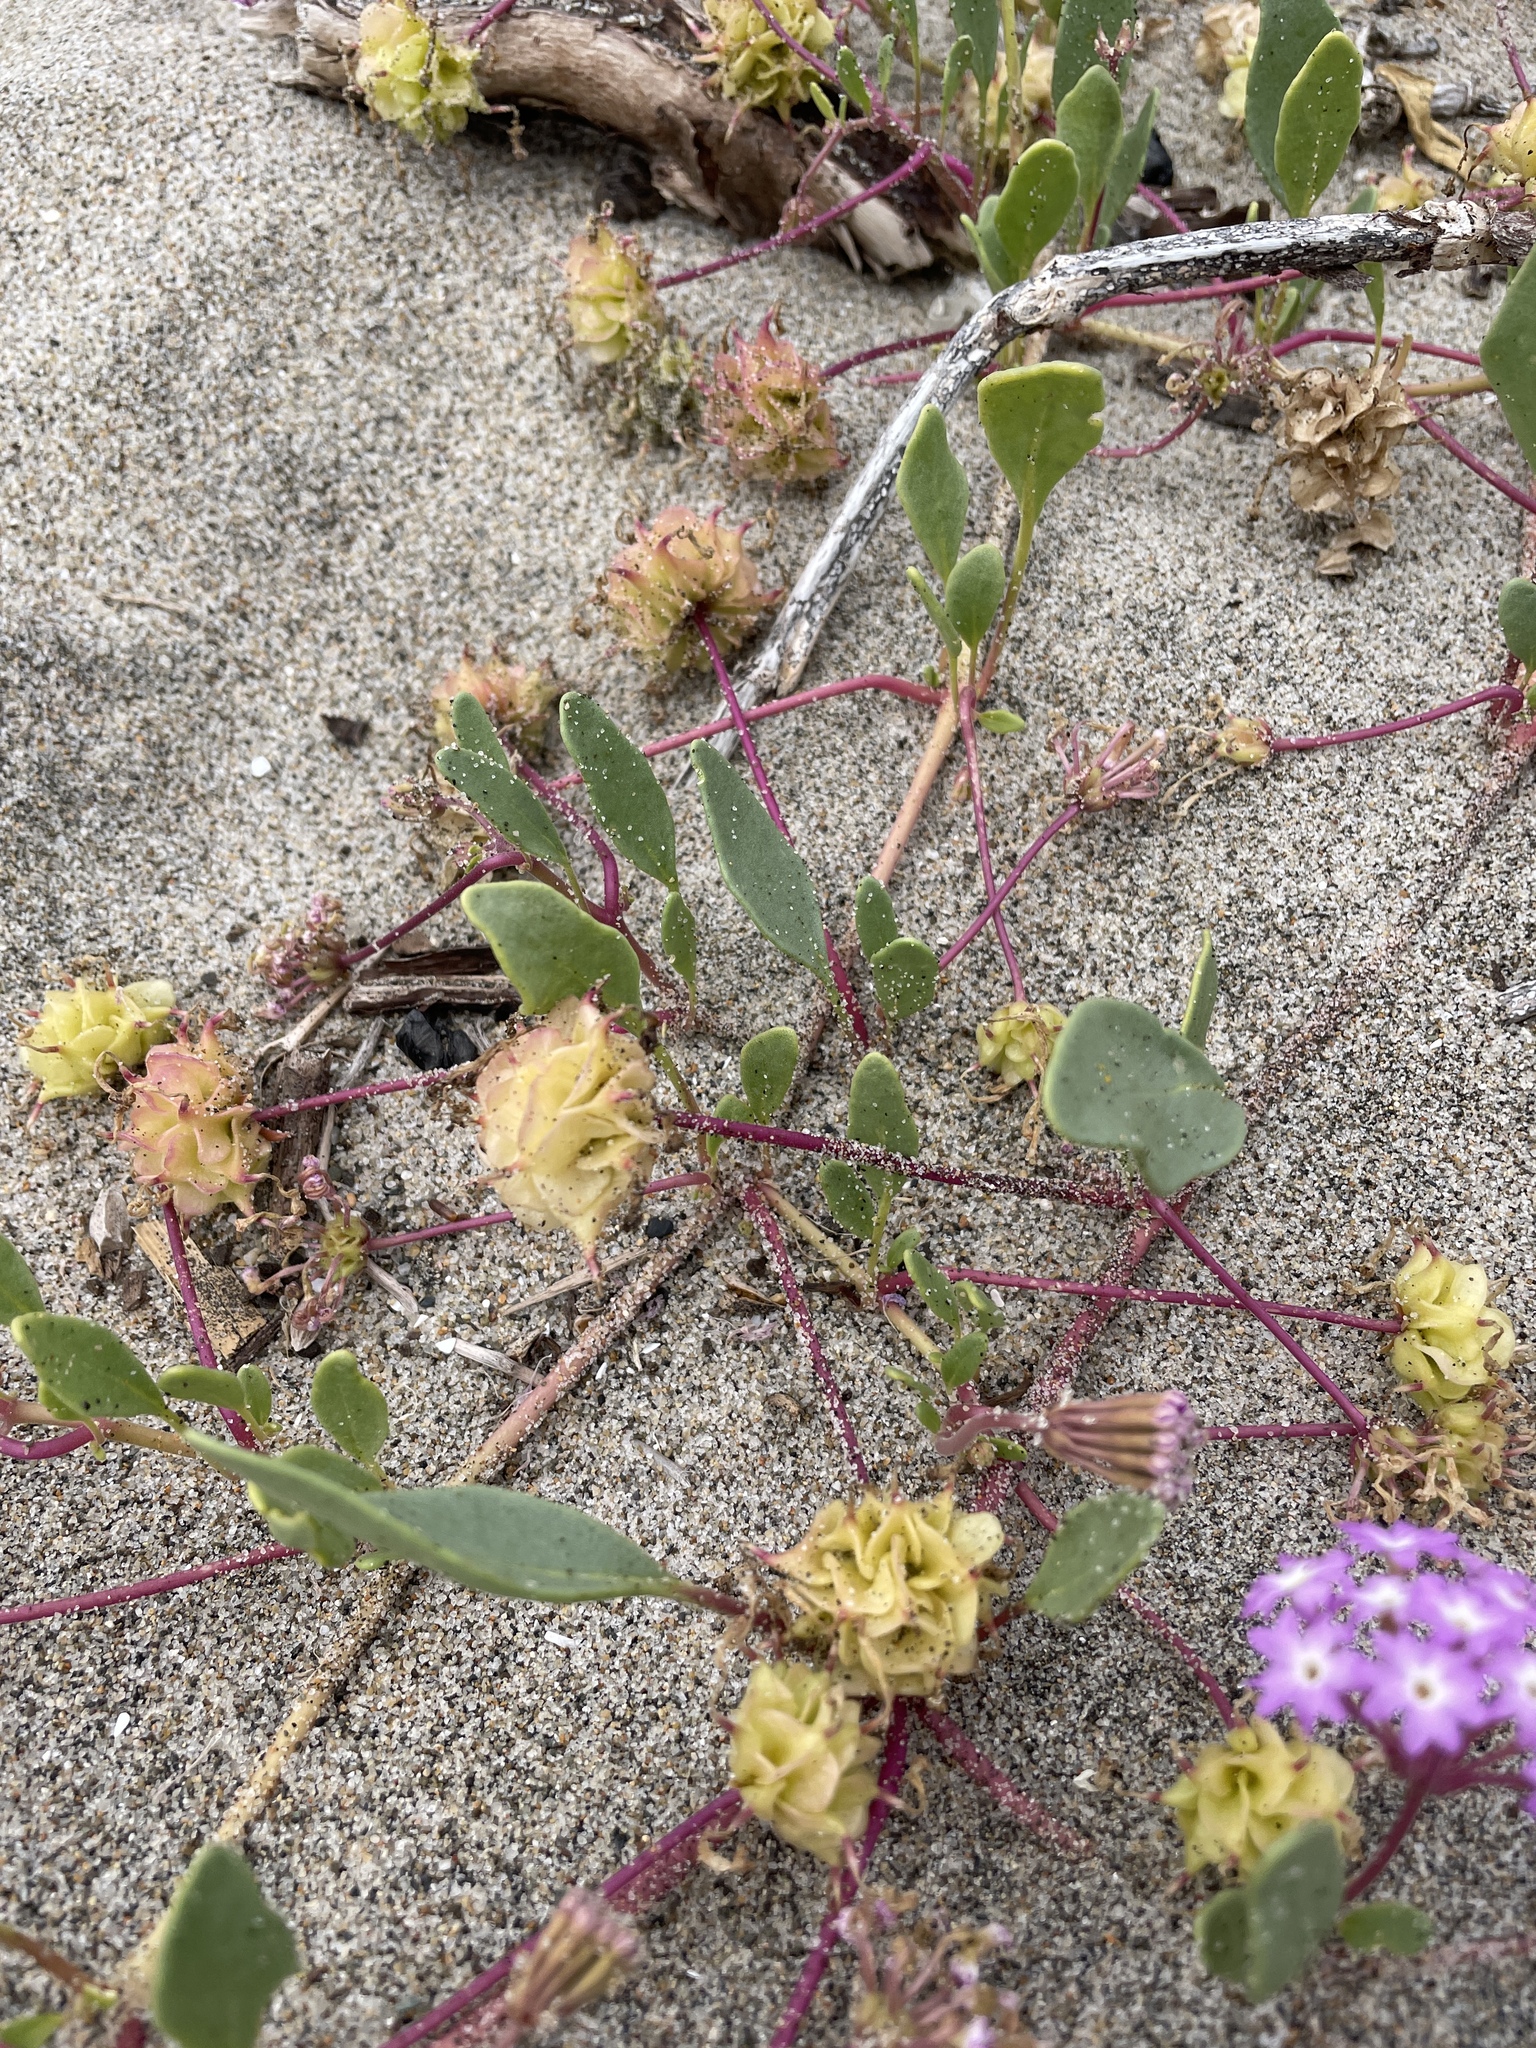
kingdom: Plantae
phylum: Tracheophyta
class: Magnoliopsida
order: Caryophyllales
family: Nyctaginaceae
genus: Abronia
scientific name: Abronia umbellata
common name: Sand-verbena
